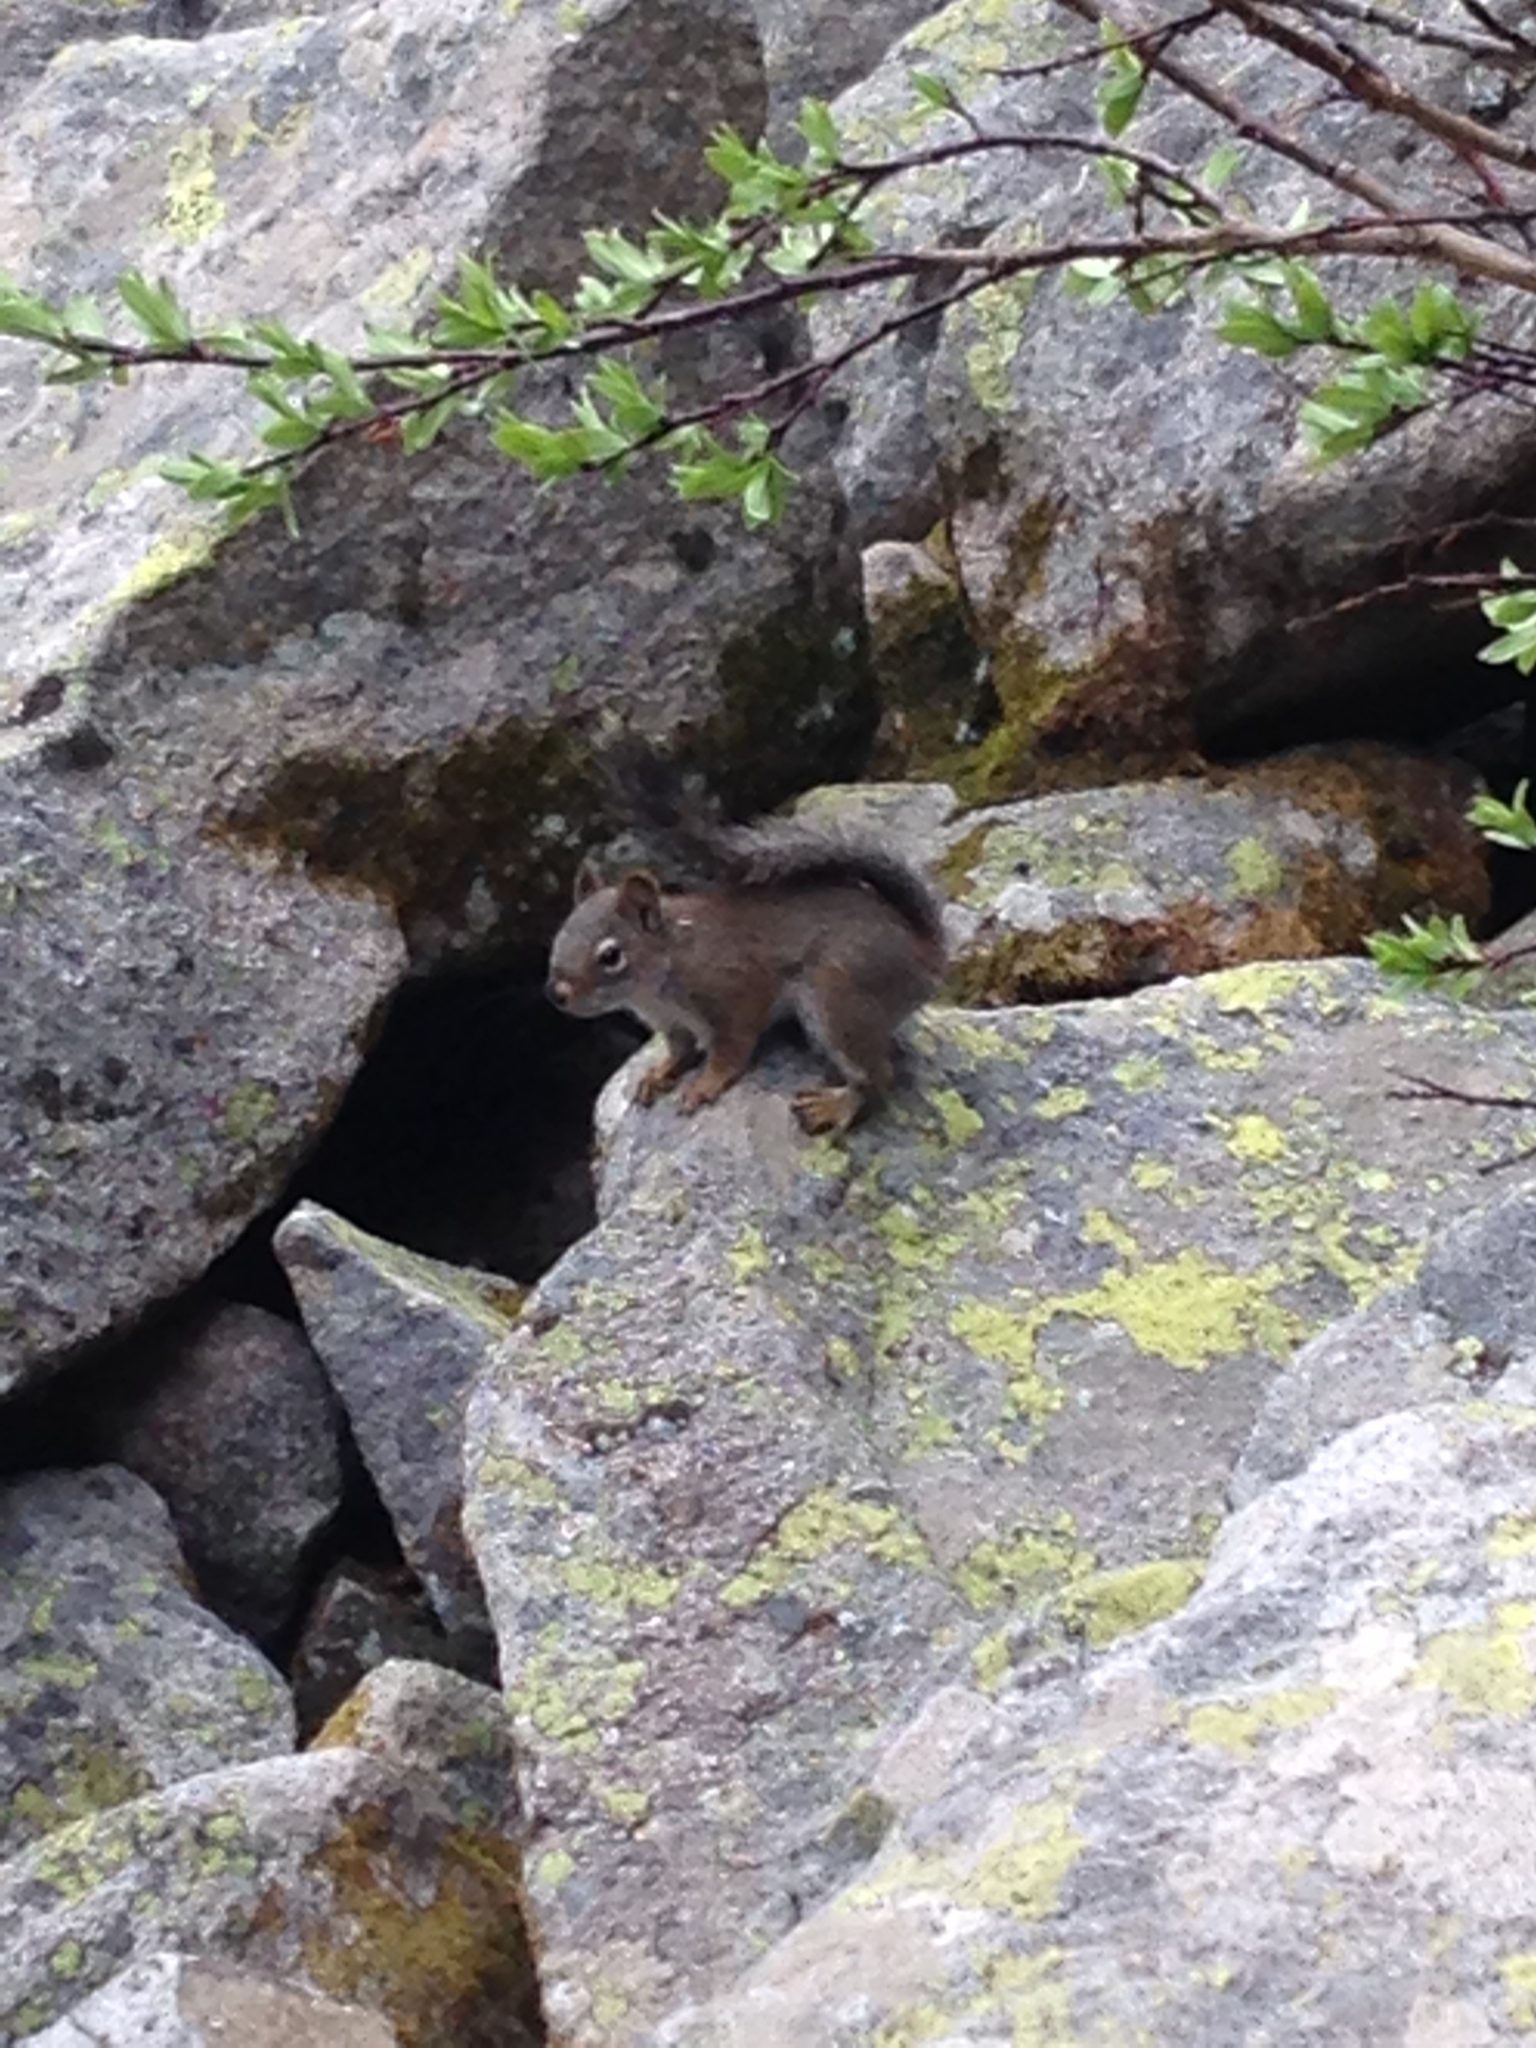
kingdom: Animalia
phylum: Chordata
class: Mammalia
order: Rodentia
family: Sciuridae
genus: Tamiasciurus
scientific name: Tamiasciurus hudsonicus
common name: Red squirrel
